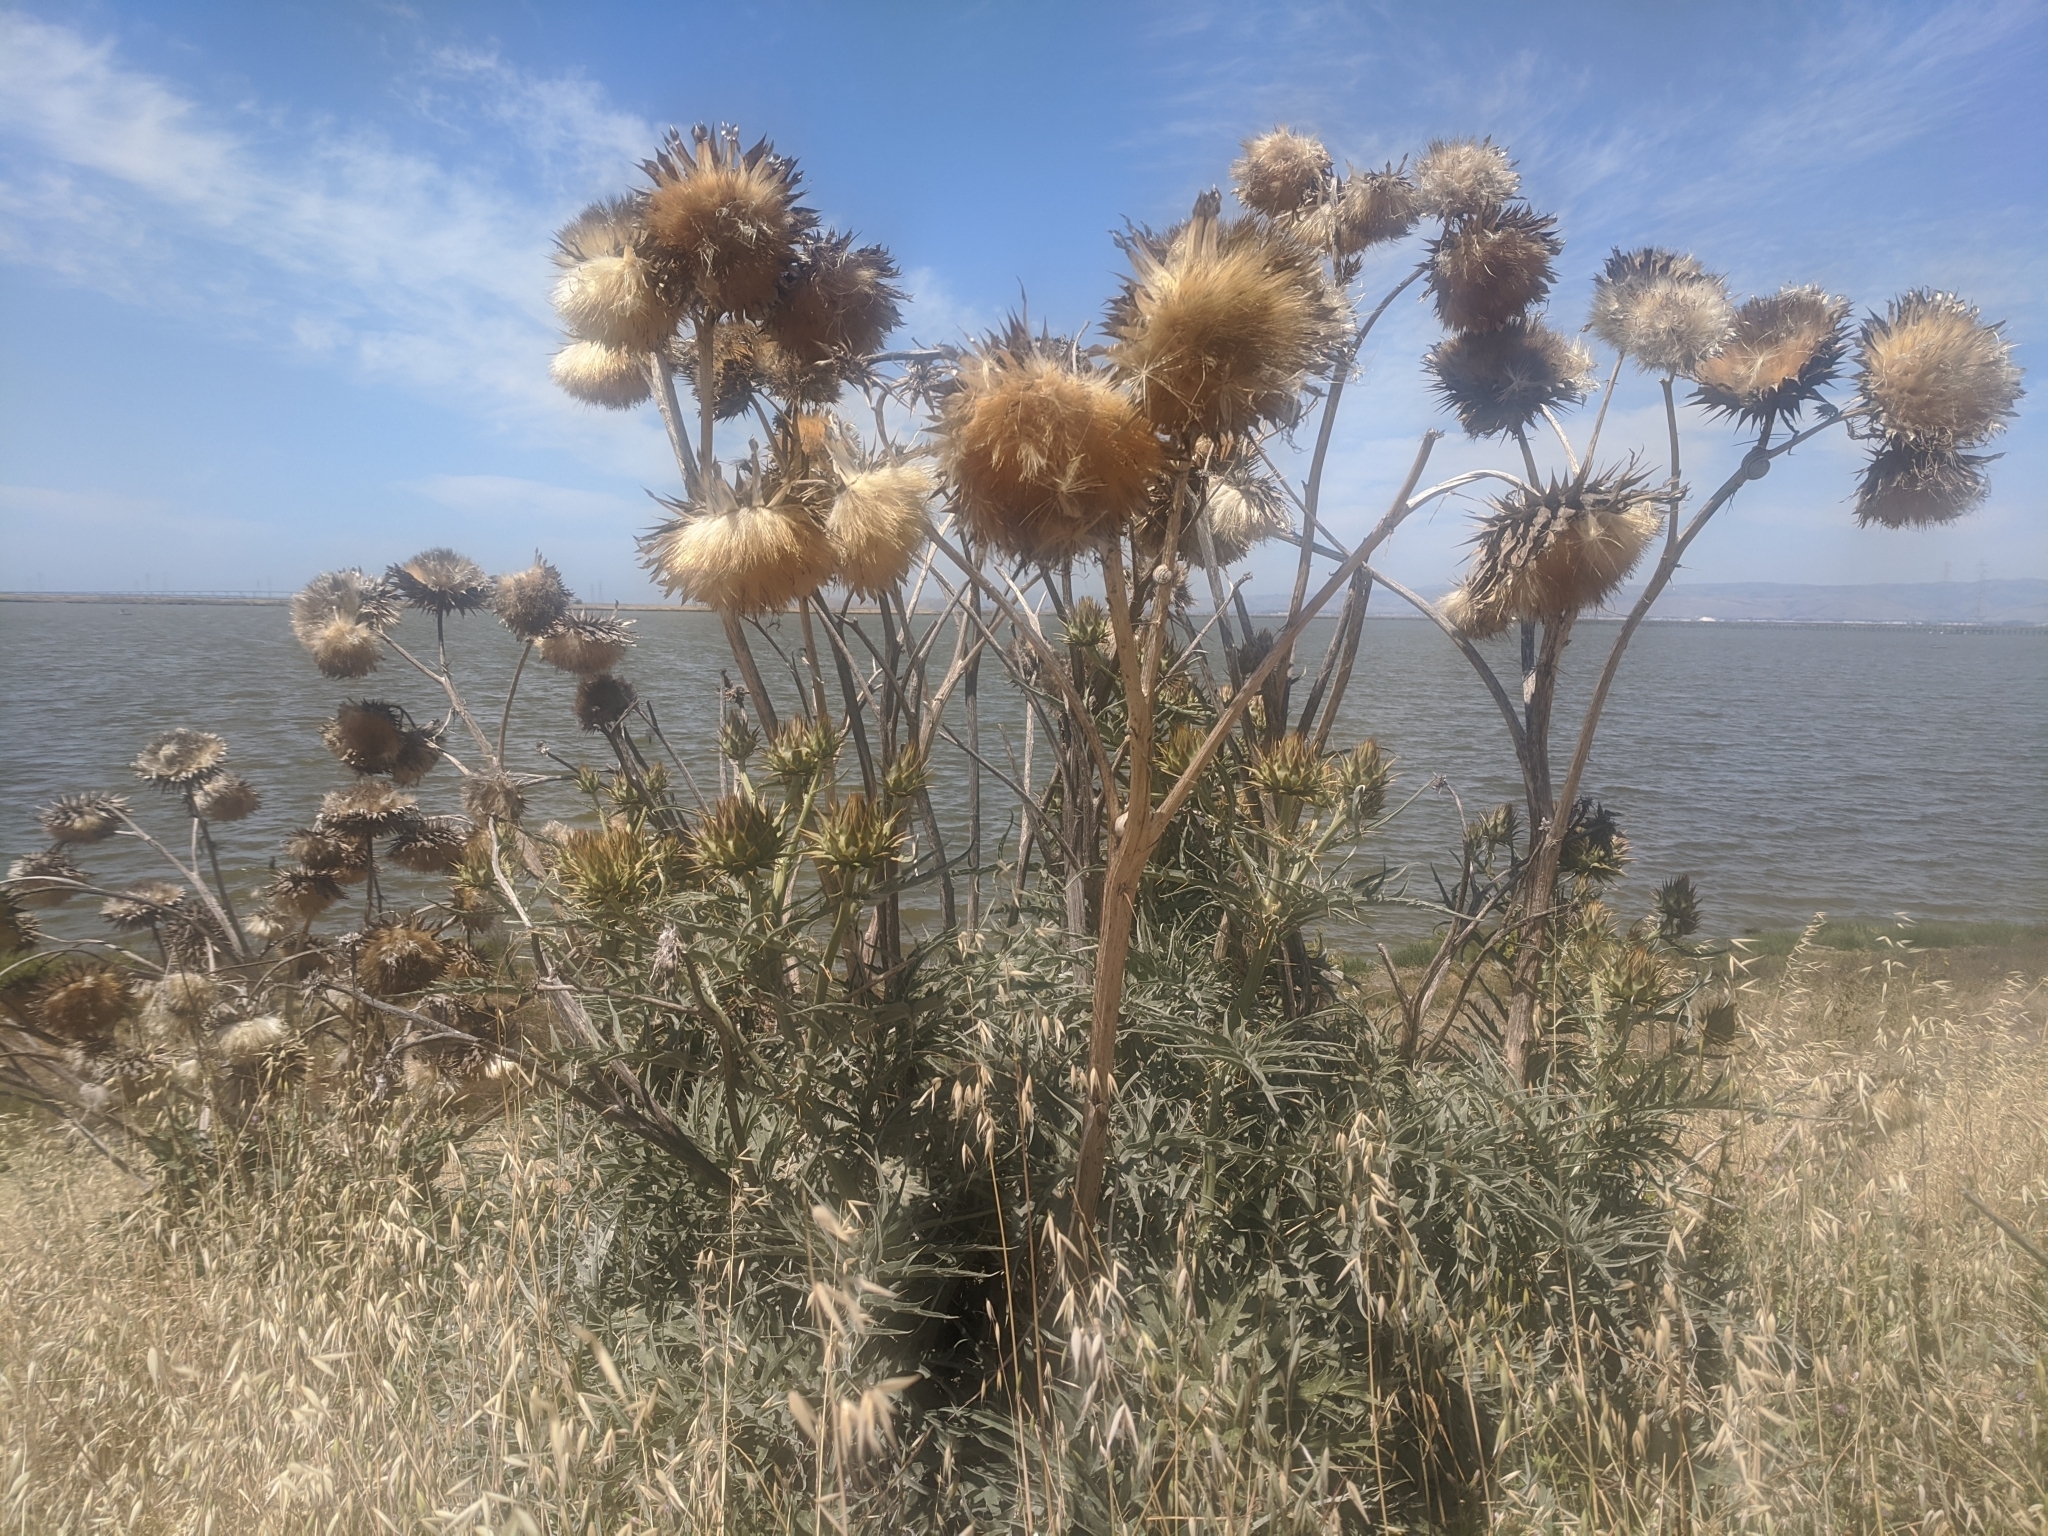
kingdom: Plantae
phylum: Tracheophyta
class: Magnoliopsida
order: Asterales
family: Asteraceae
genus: Cynara
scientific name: Cynara cardunculus
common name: Globe artichoke
